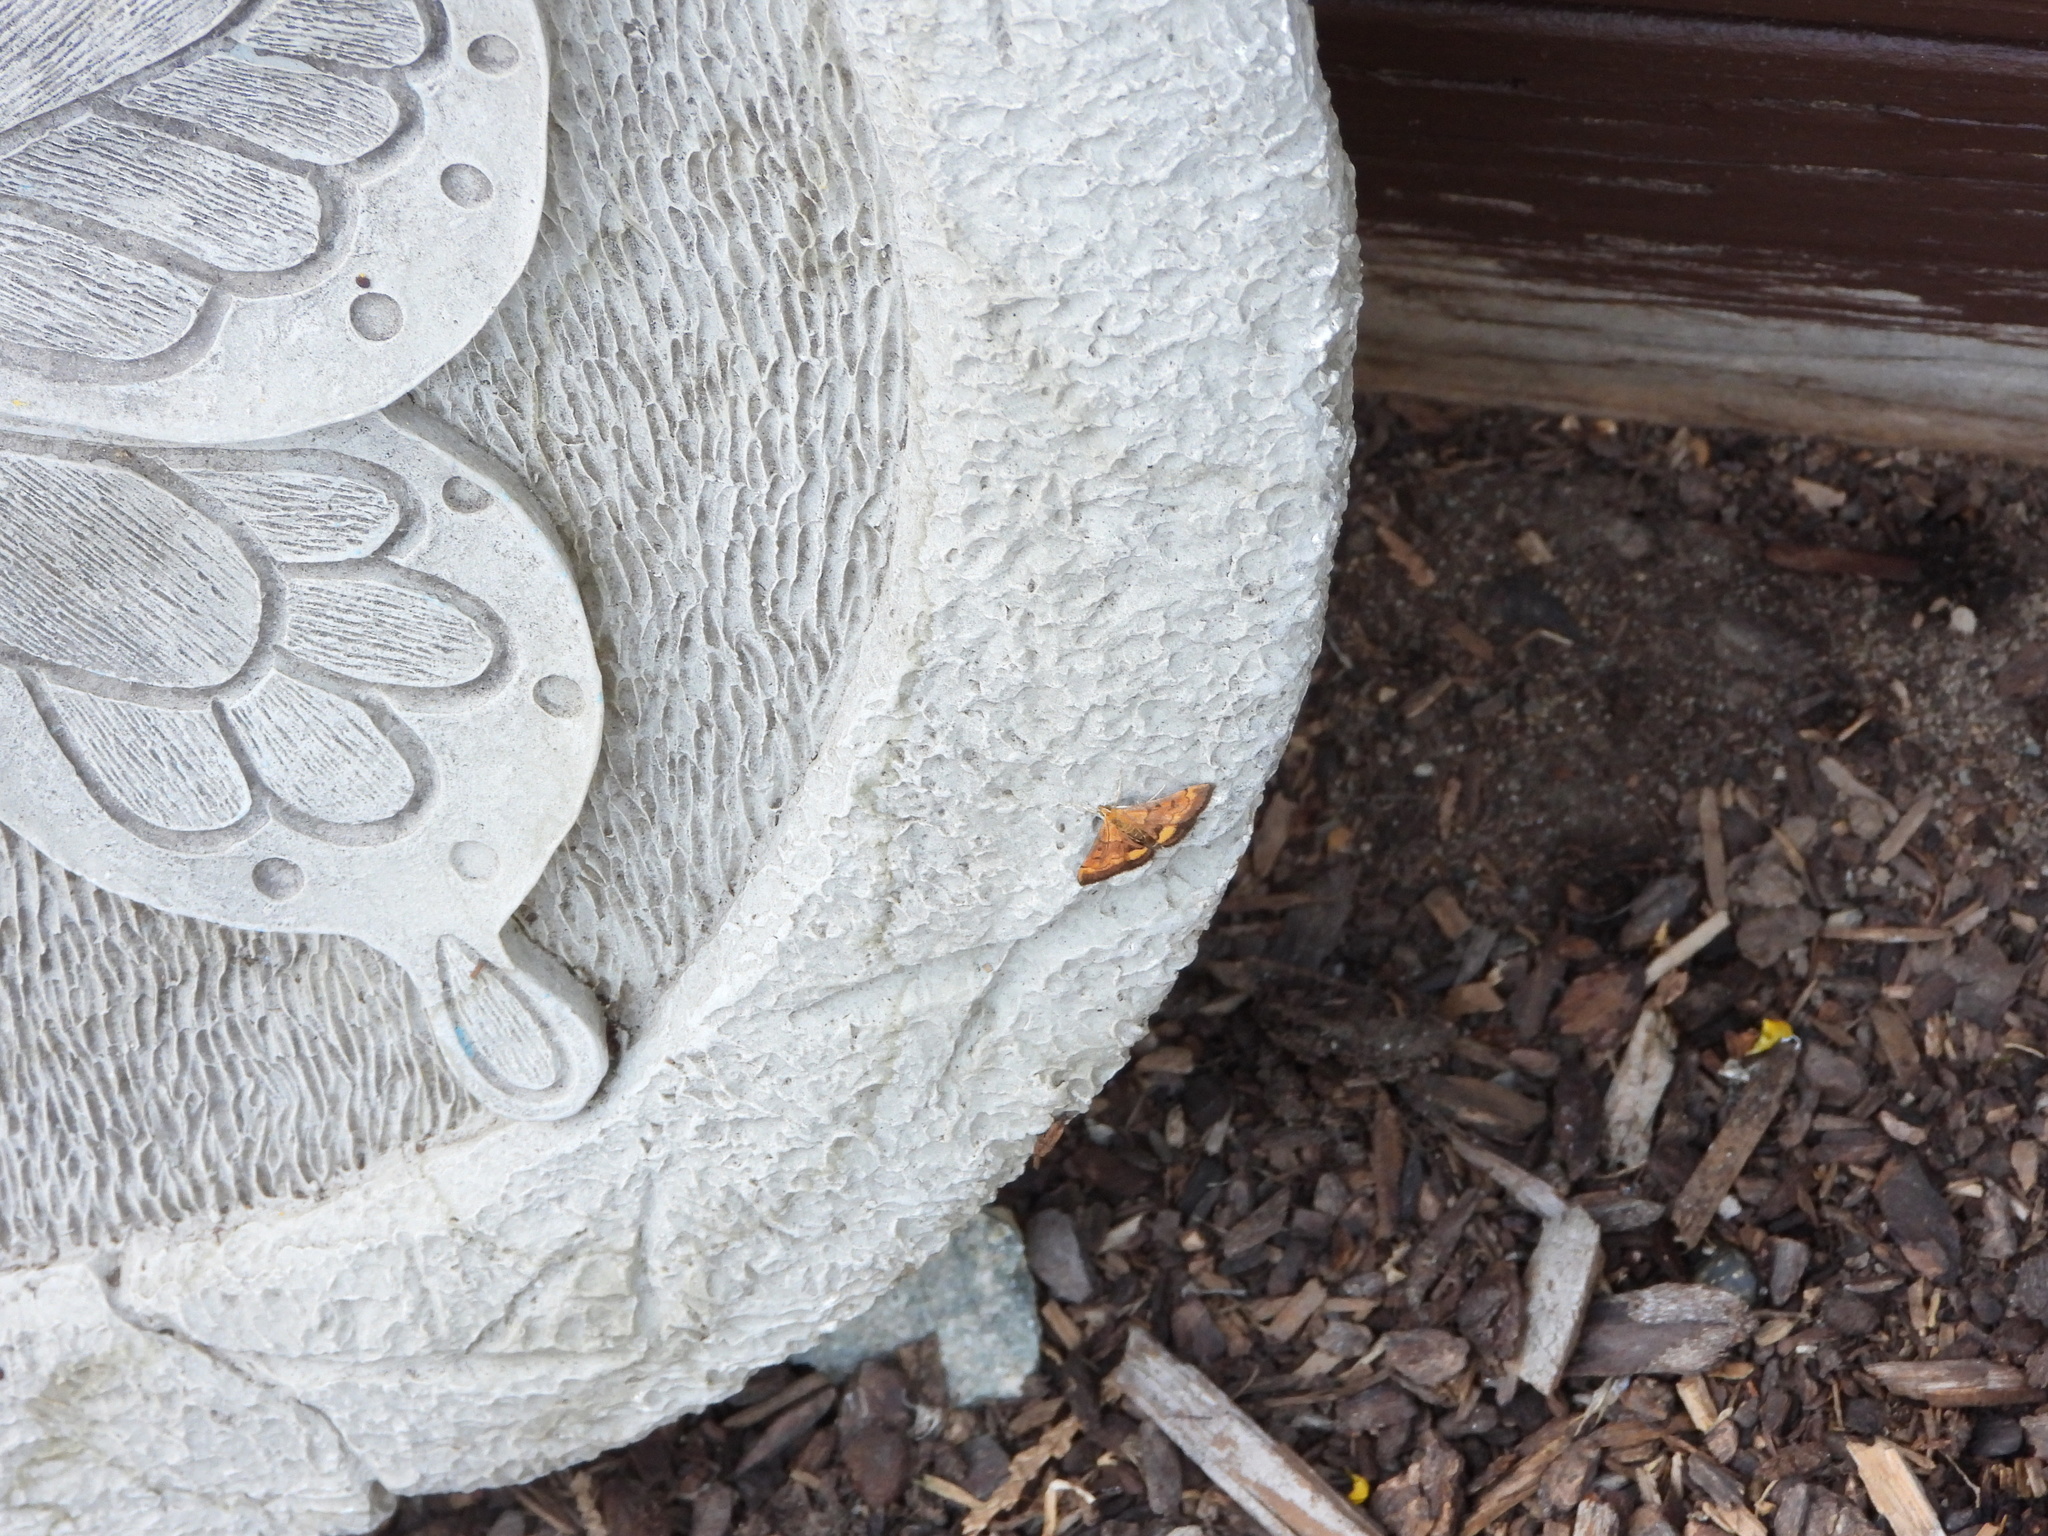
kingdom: Animalia
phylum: Arthropoda
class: Insecta
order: Lepidoptera
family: Crambidae
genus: Pyrausta
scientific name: Pyrausta californicalis
